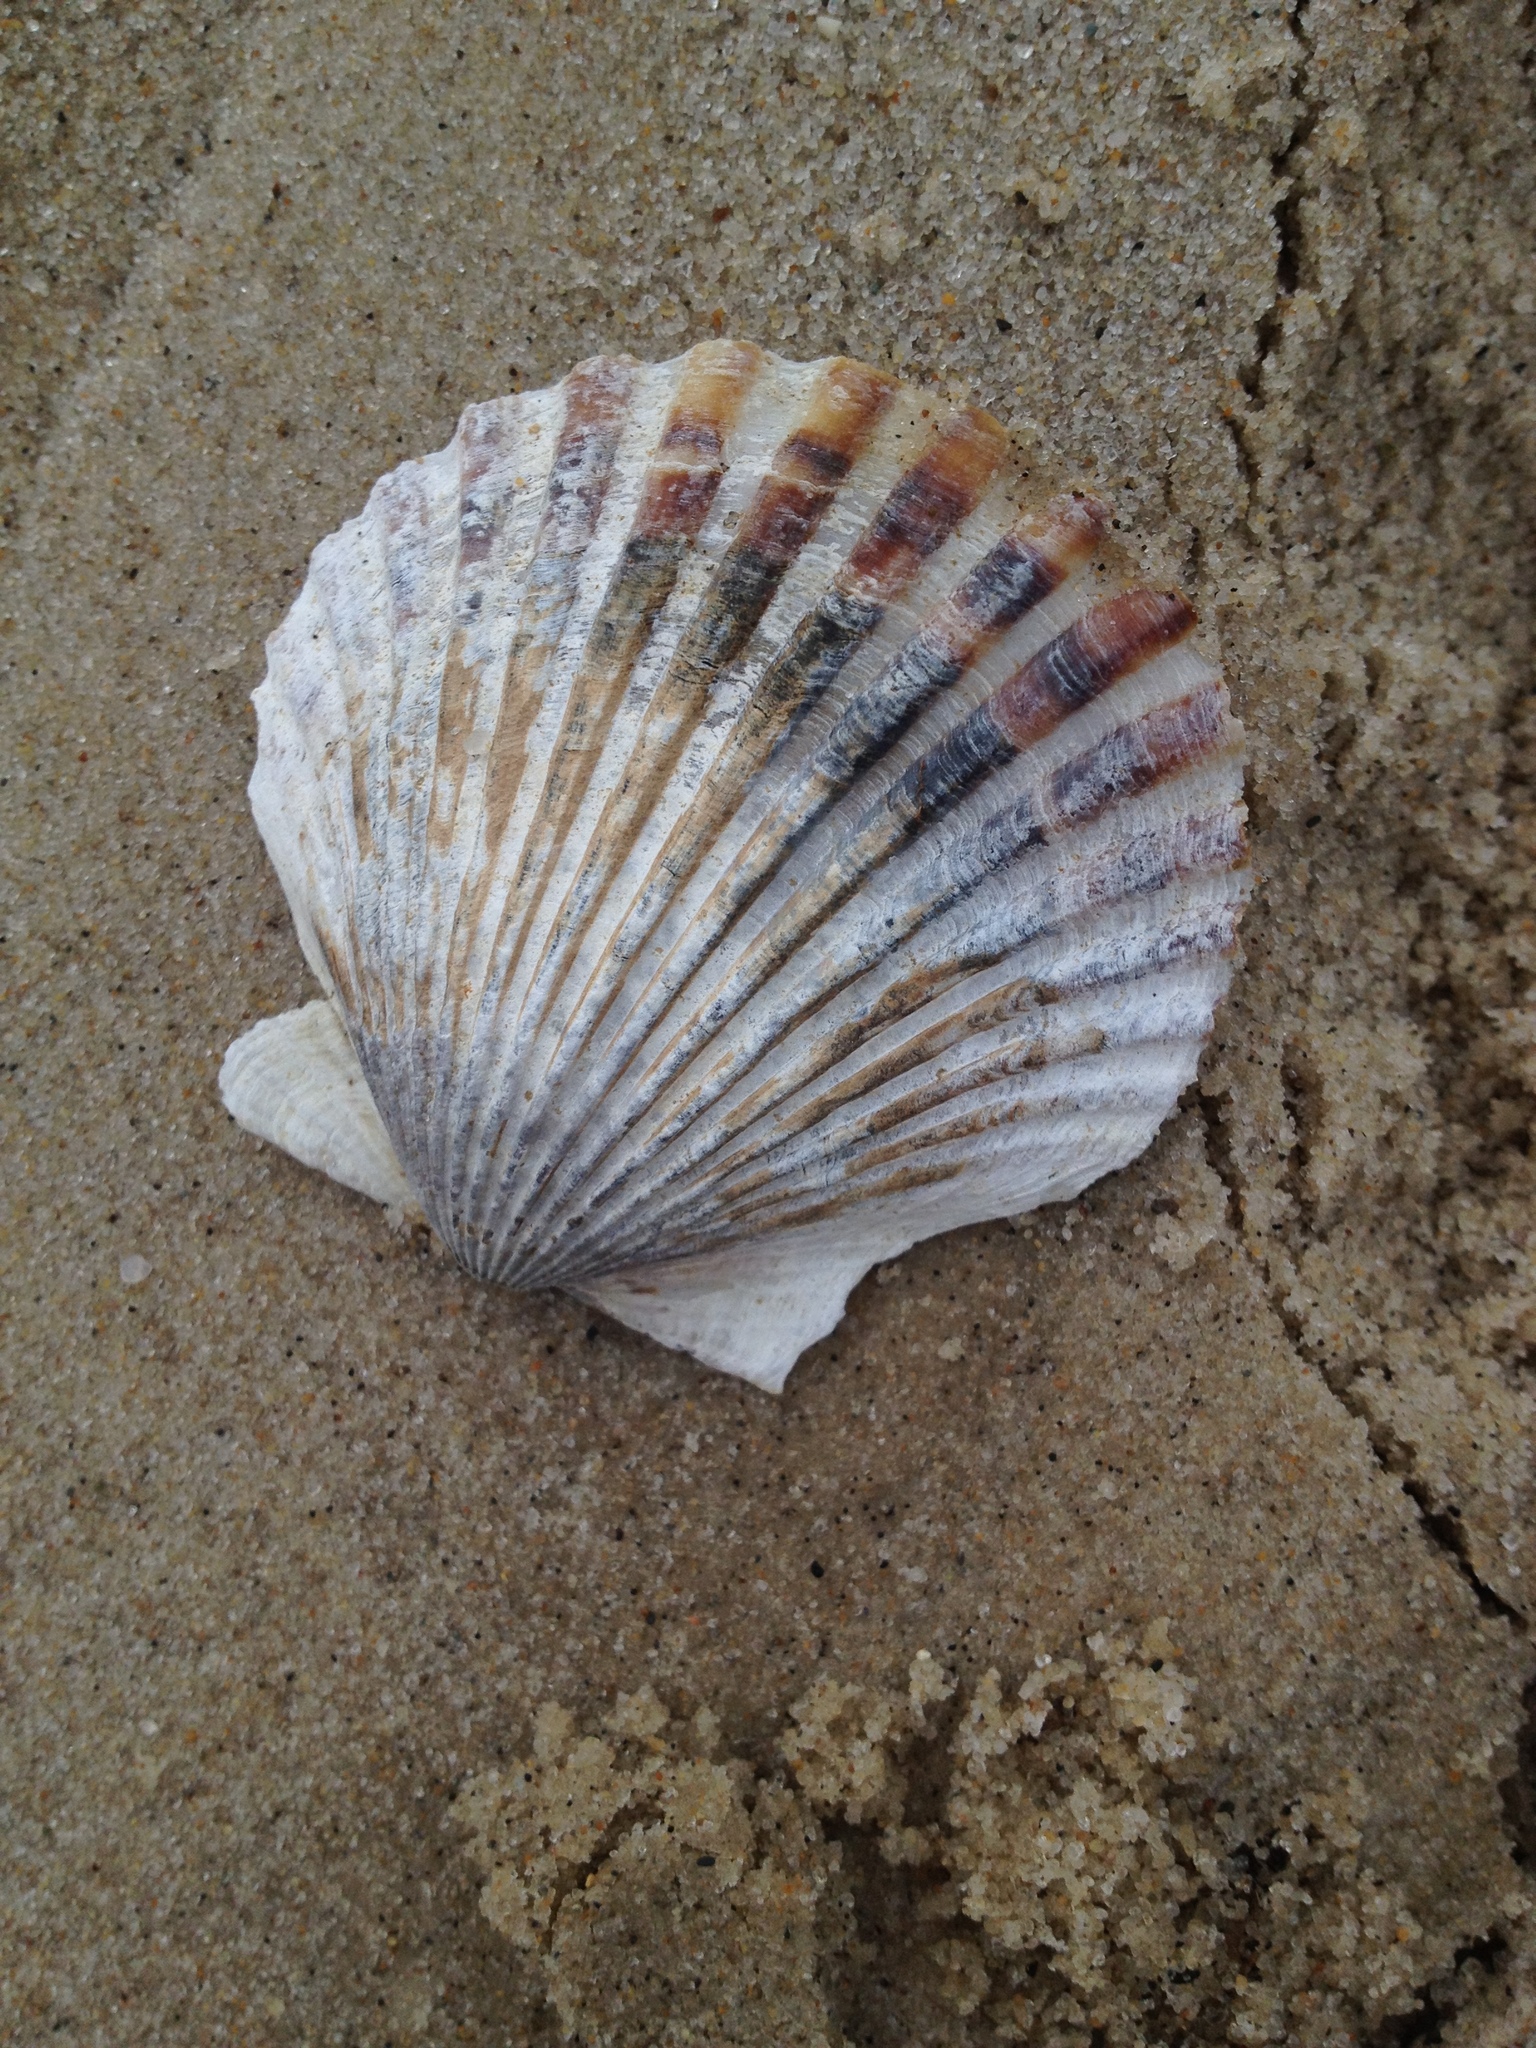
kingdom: Animalia
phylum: Mollusca
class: Bivalvia
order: Pectinida
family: Pectinidae
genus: Argopecten
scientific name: Argopecten irradians
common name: Atlantic bay scallop
